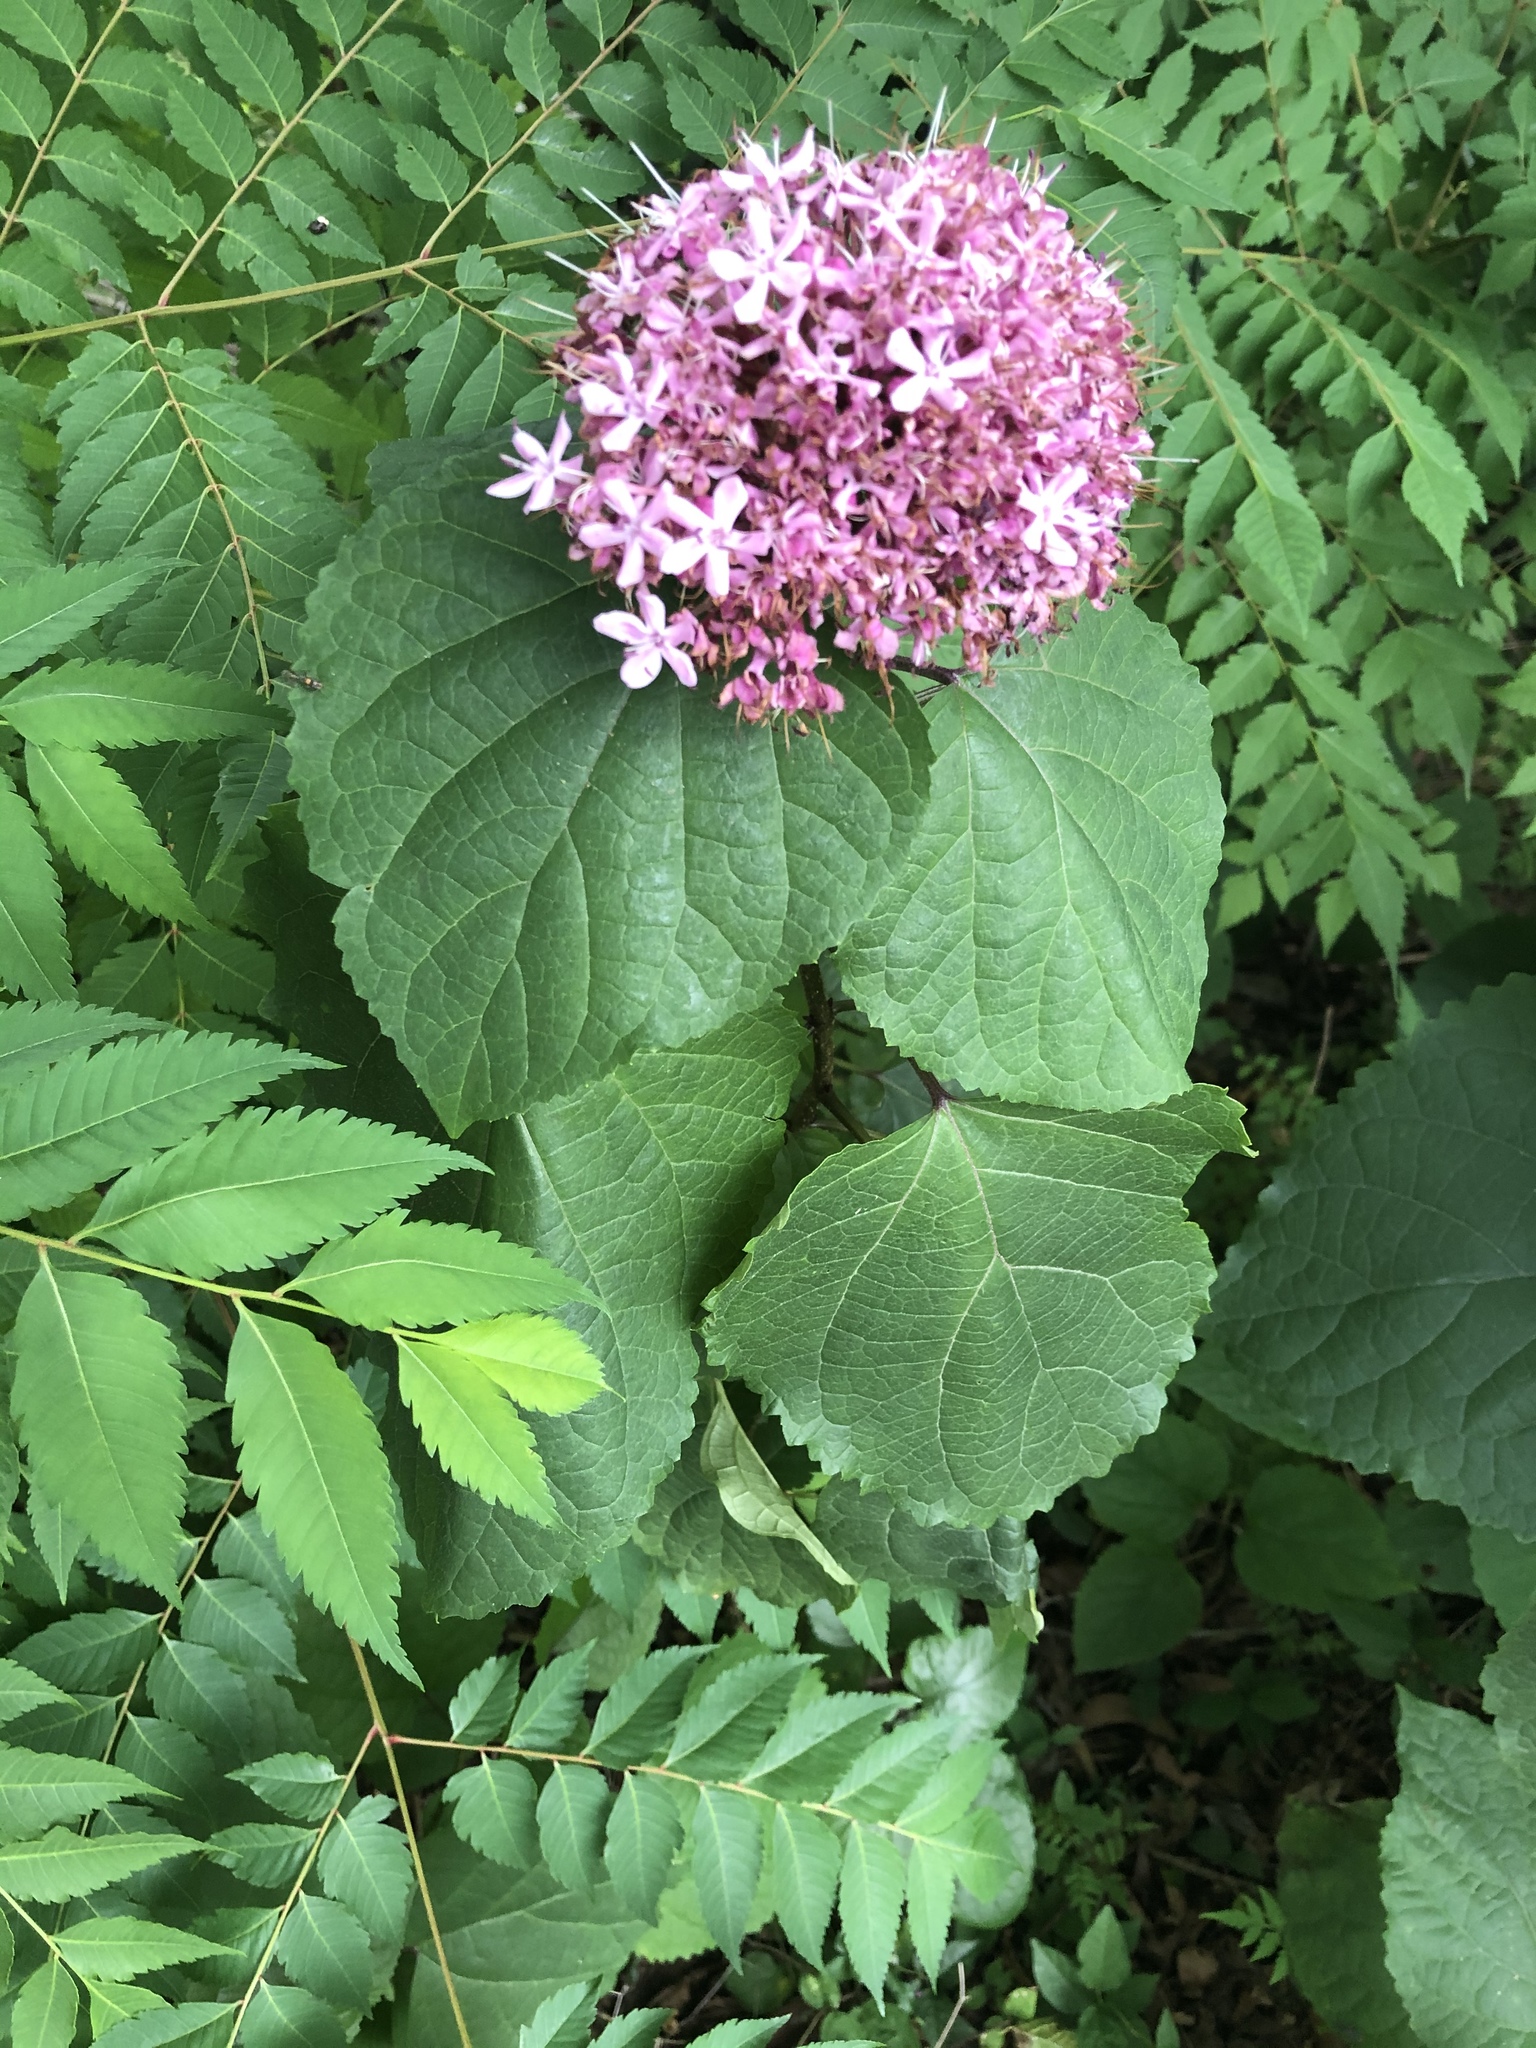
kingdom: Plantae
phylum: Tracheophyta
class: Magnoliopsida
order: Lamiales
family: Lamiaceae
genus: Clerodendrum
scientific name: Clerodendrum bungei
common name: Rose glorybower
